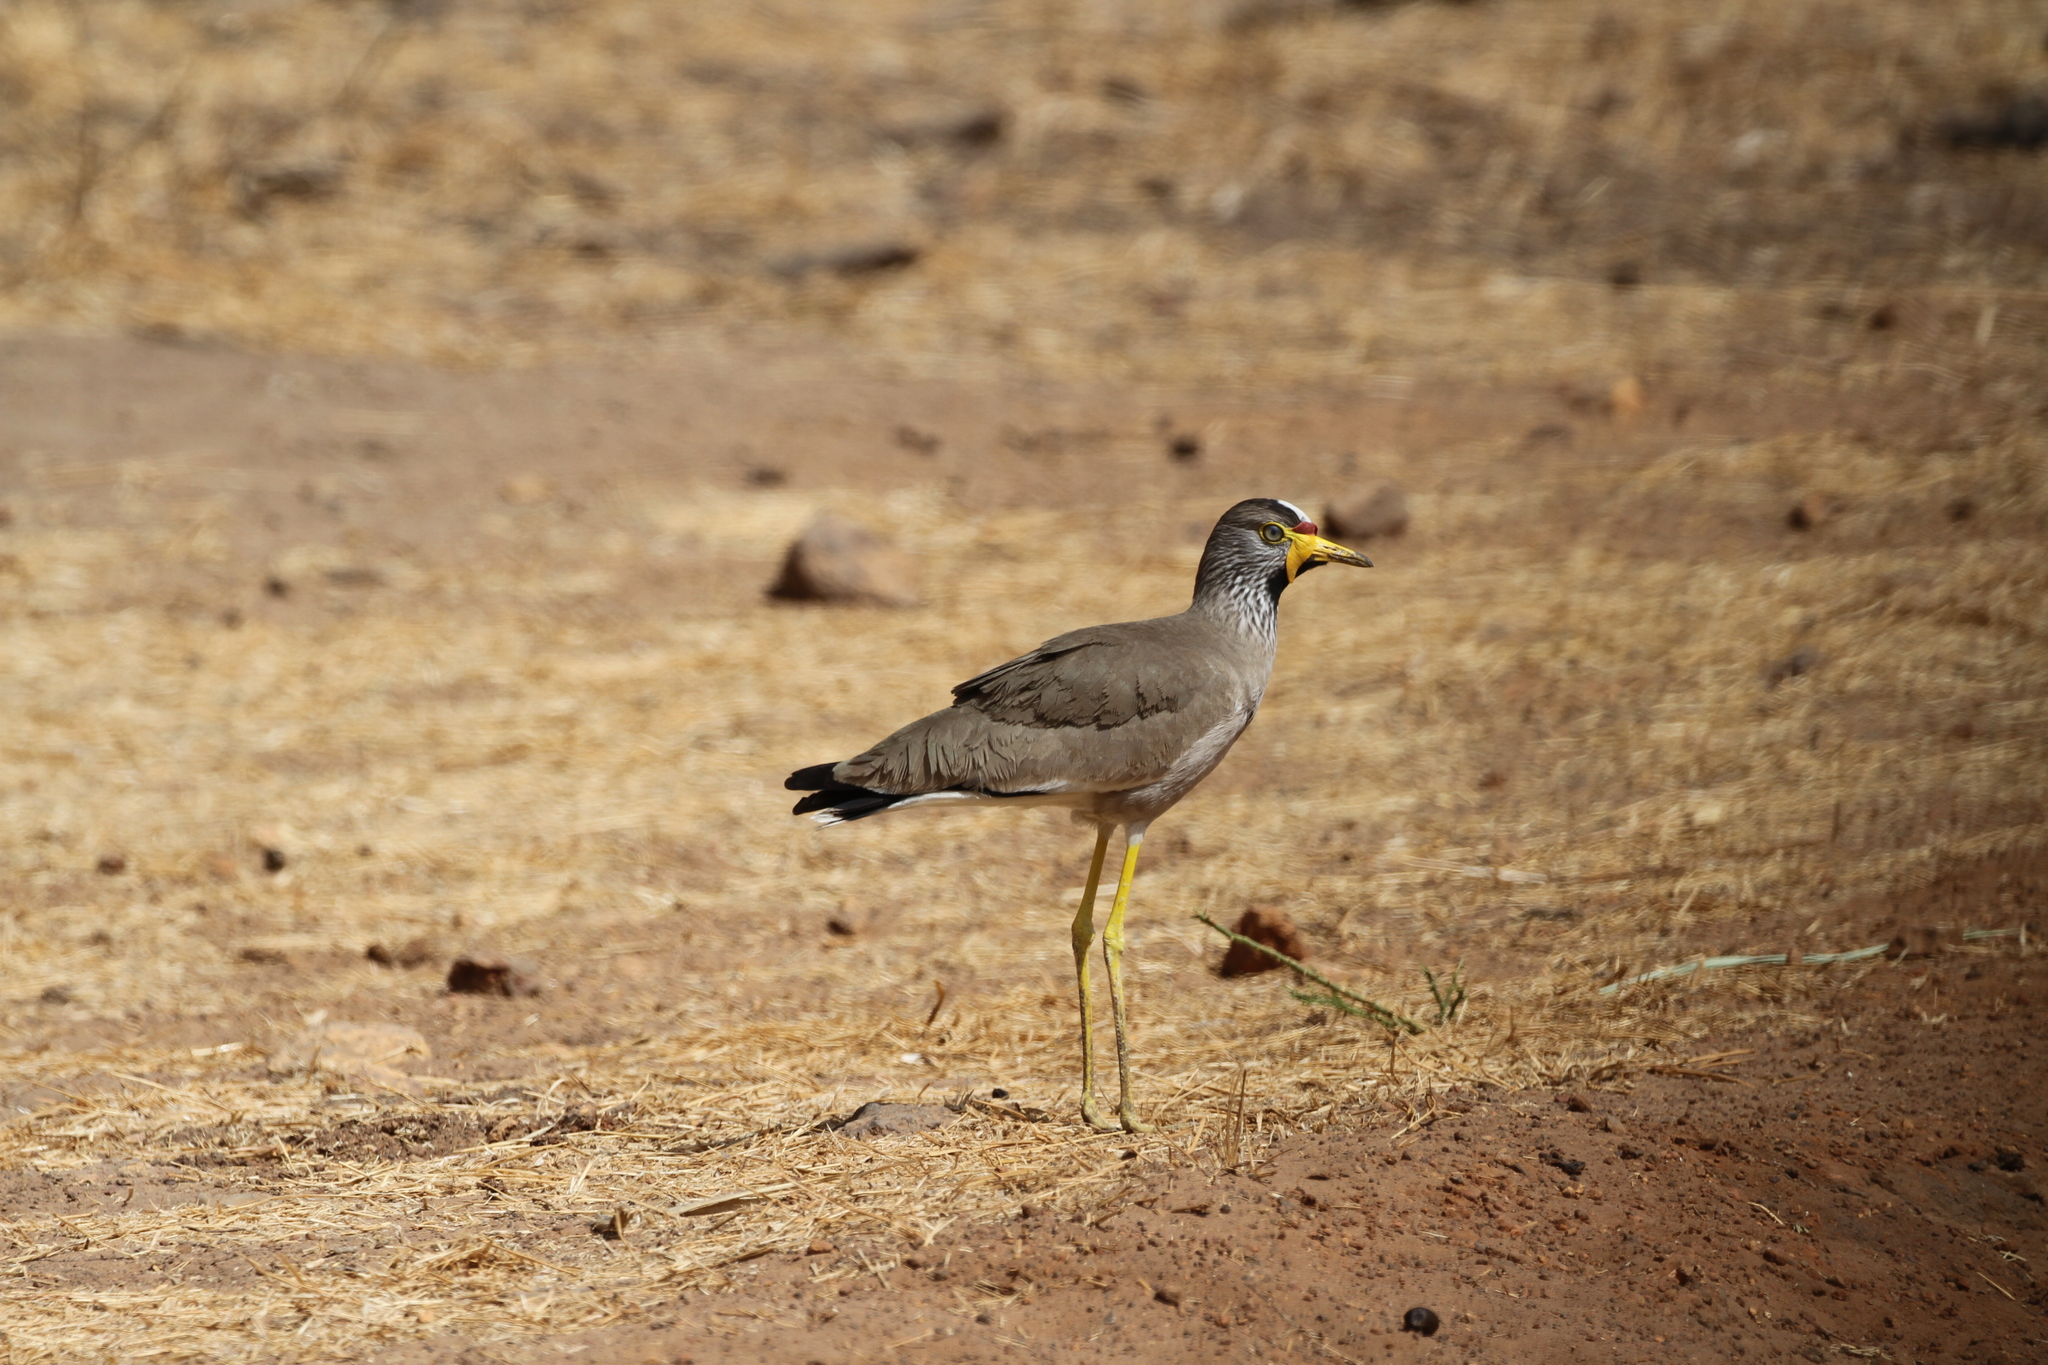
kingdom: Animalia
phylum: Chordata
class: Aves
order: Charadriiformes
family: Charadriidae
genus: Vanellus
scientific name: Vanellus senegallus
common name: African wattled lapwing
